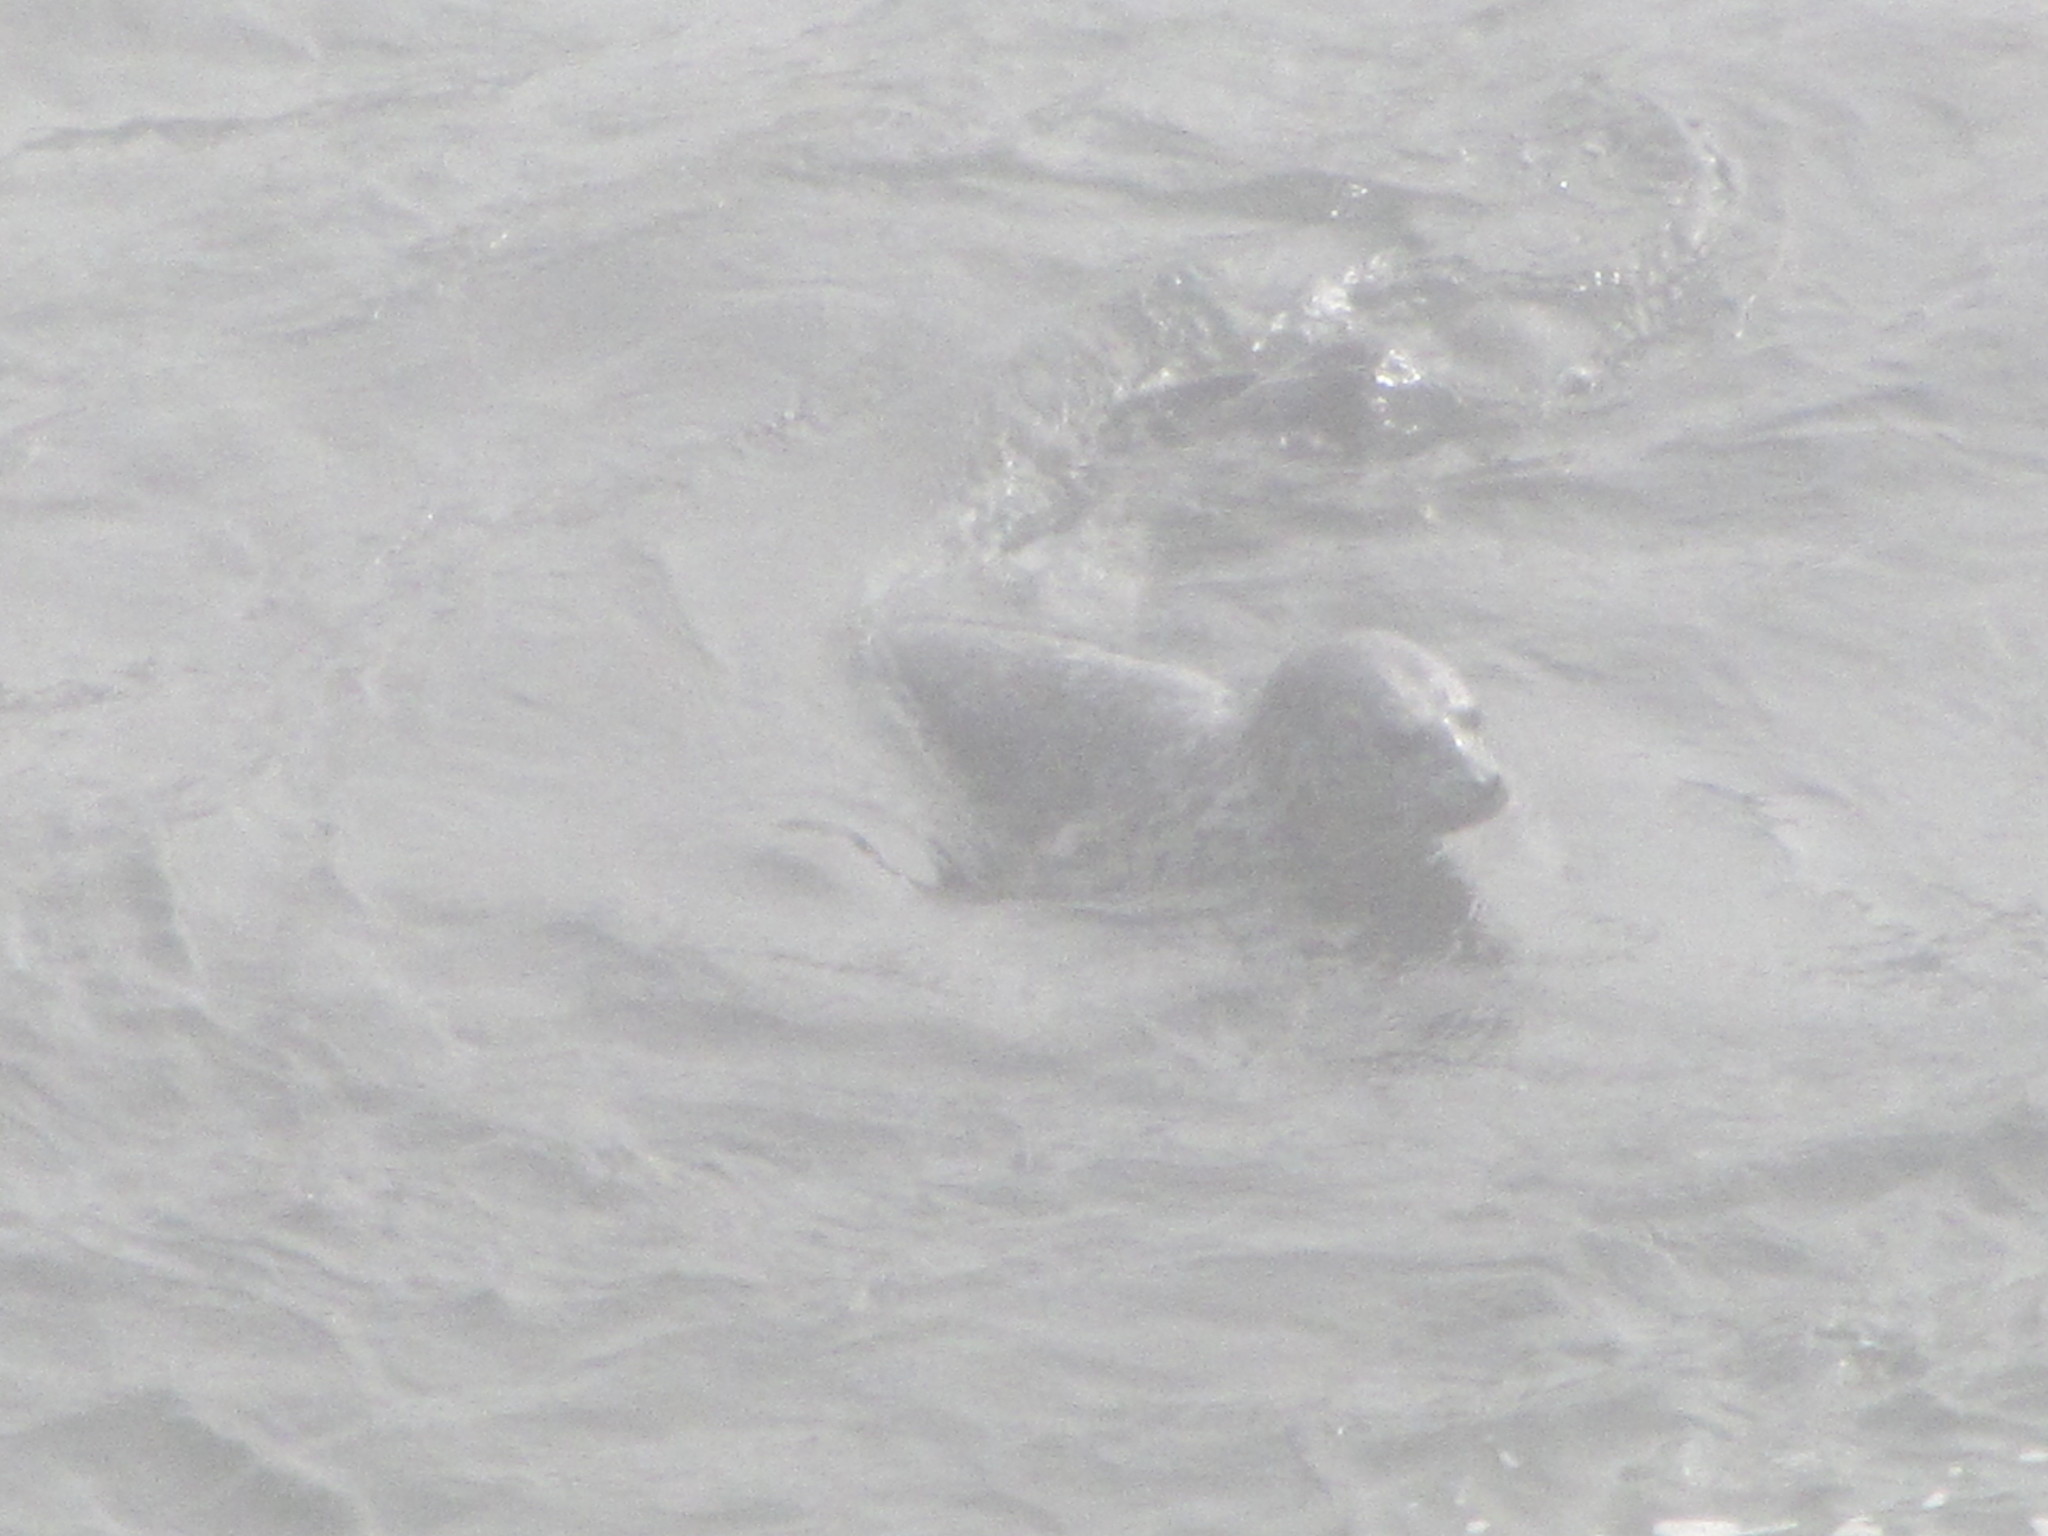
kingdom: Animalia
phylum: Chordata
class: Mammalia
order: Carnivora
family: Phocidae
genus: Phoca
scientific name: Phoca vitulina
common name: Harbor seal
